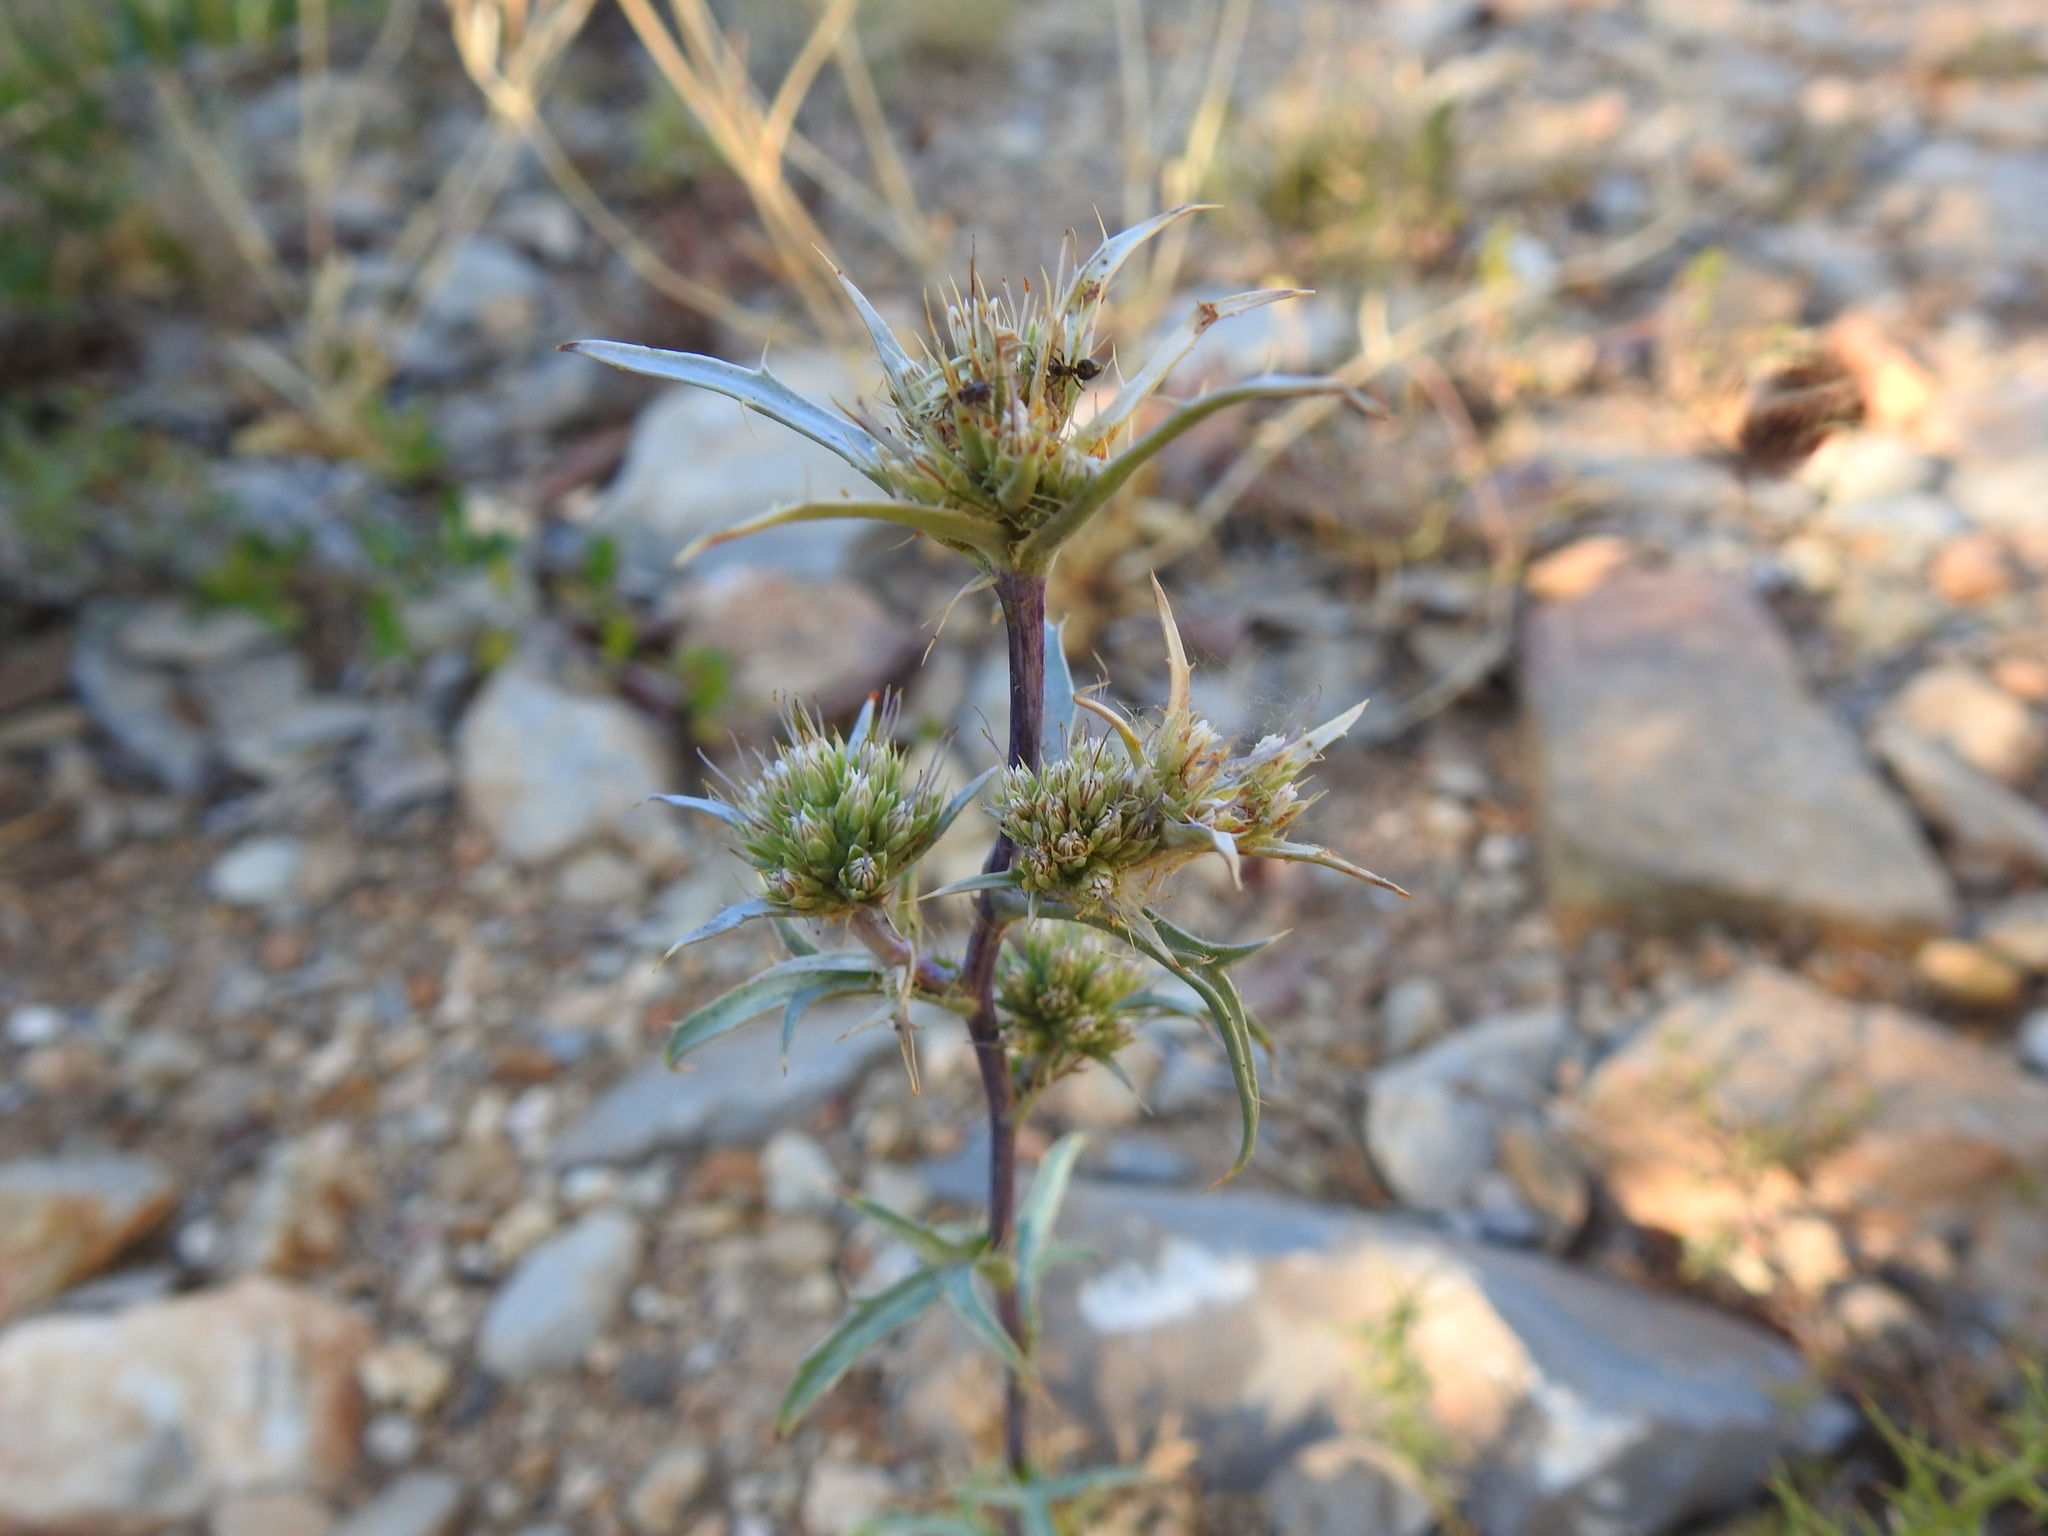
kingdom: Plantae
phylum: Tracheophyta
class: Magnoliopsida
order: Apiales
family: Apiaceae
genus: Eryngium
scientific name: Eryngium dilatatum
